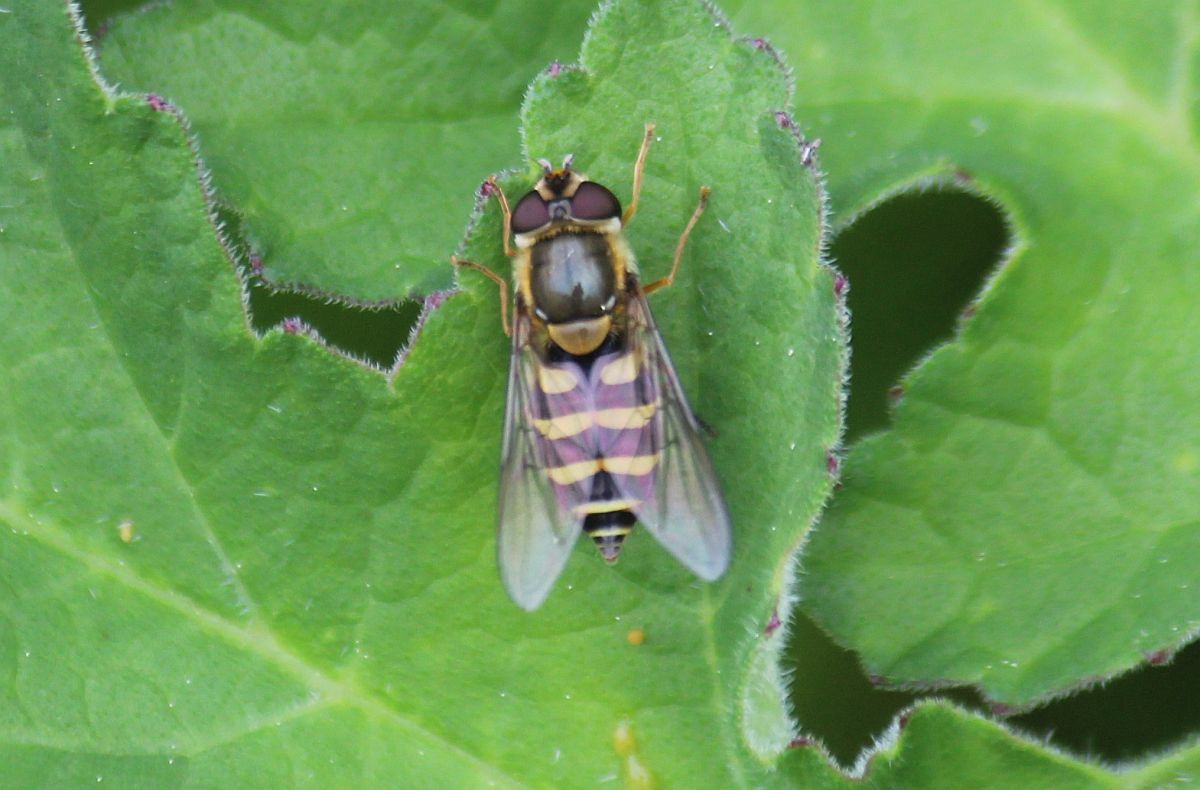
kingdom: Animalia
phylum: Arthropoda
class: Insecta
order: Diptera
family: Syrphidae
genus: Syrphus
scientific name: Syrphus
